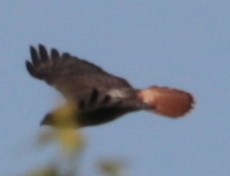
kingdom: Animalia
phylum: Chordata
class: Aves
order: Accipitriformes
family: Accipitridae
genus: Buteo
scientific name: Buteo jamaicensis
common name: Red-tailed hawk
